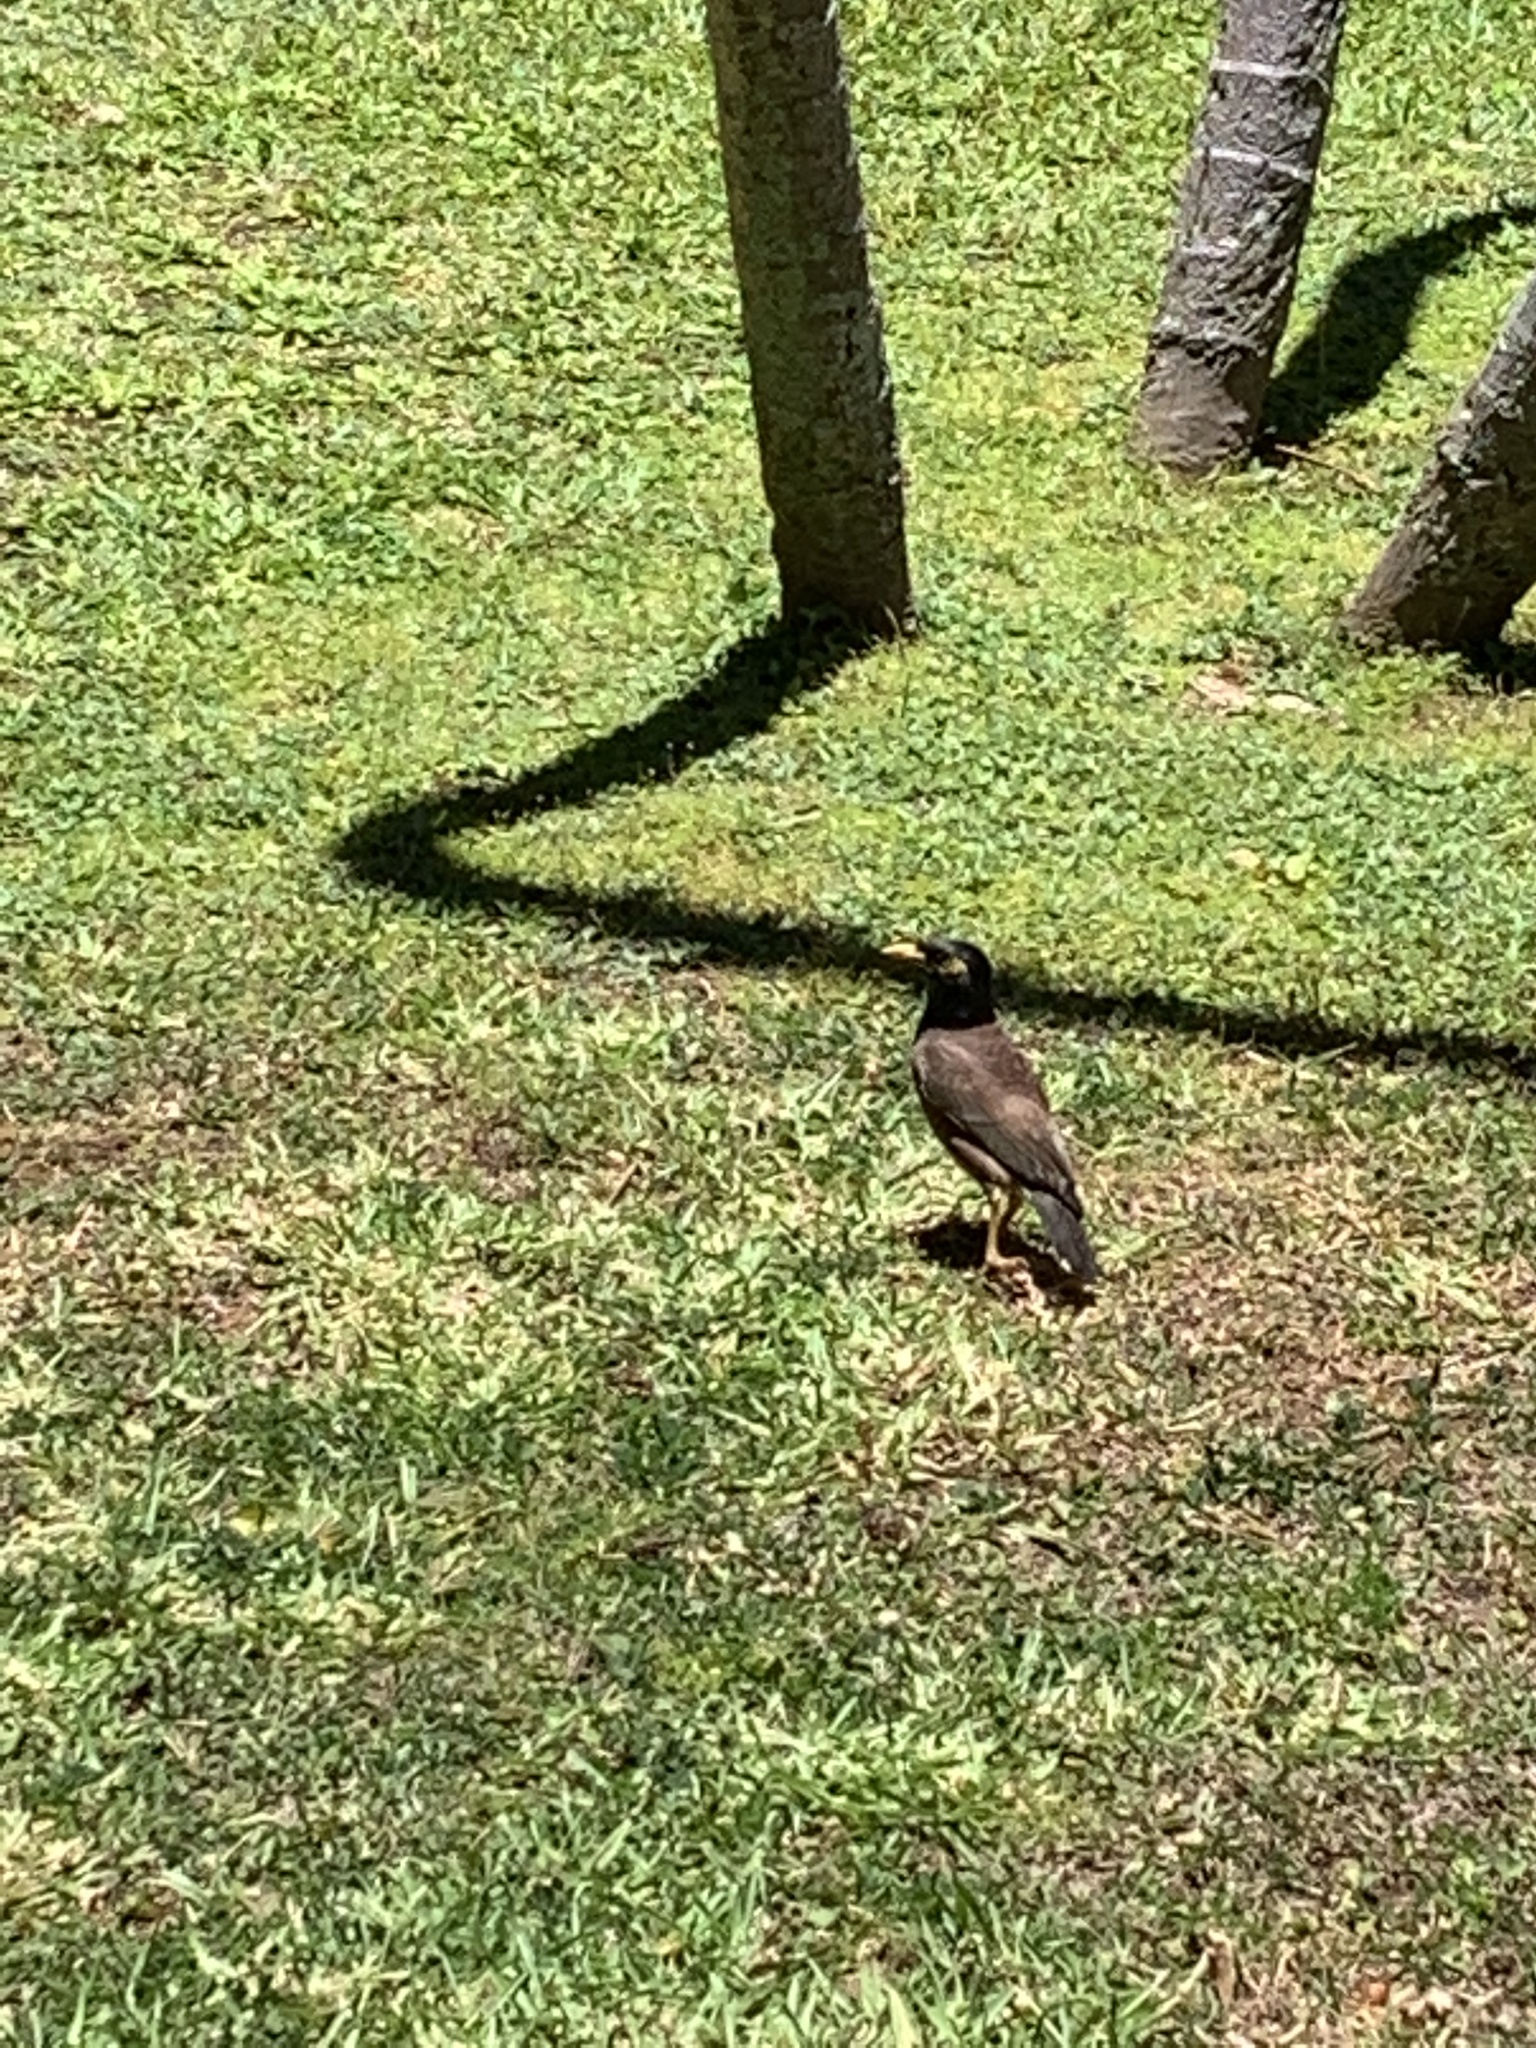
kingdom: Animalia
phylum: Chordata
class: Aves
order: Passeriformes
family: Sturnidae
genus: Acridotheres
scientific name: Acridotheres tristis
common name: Common myna
